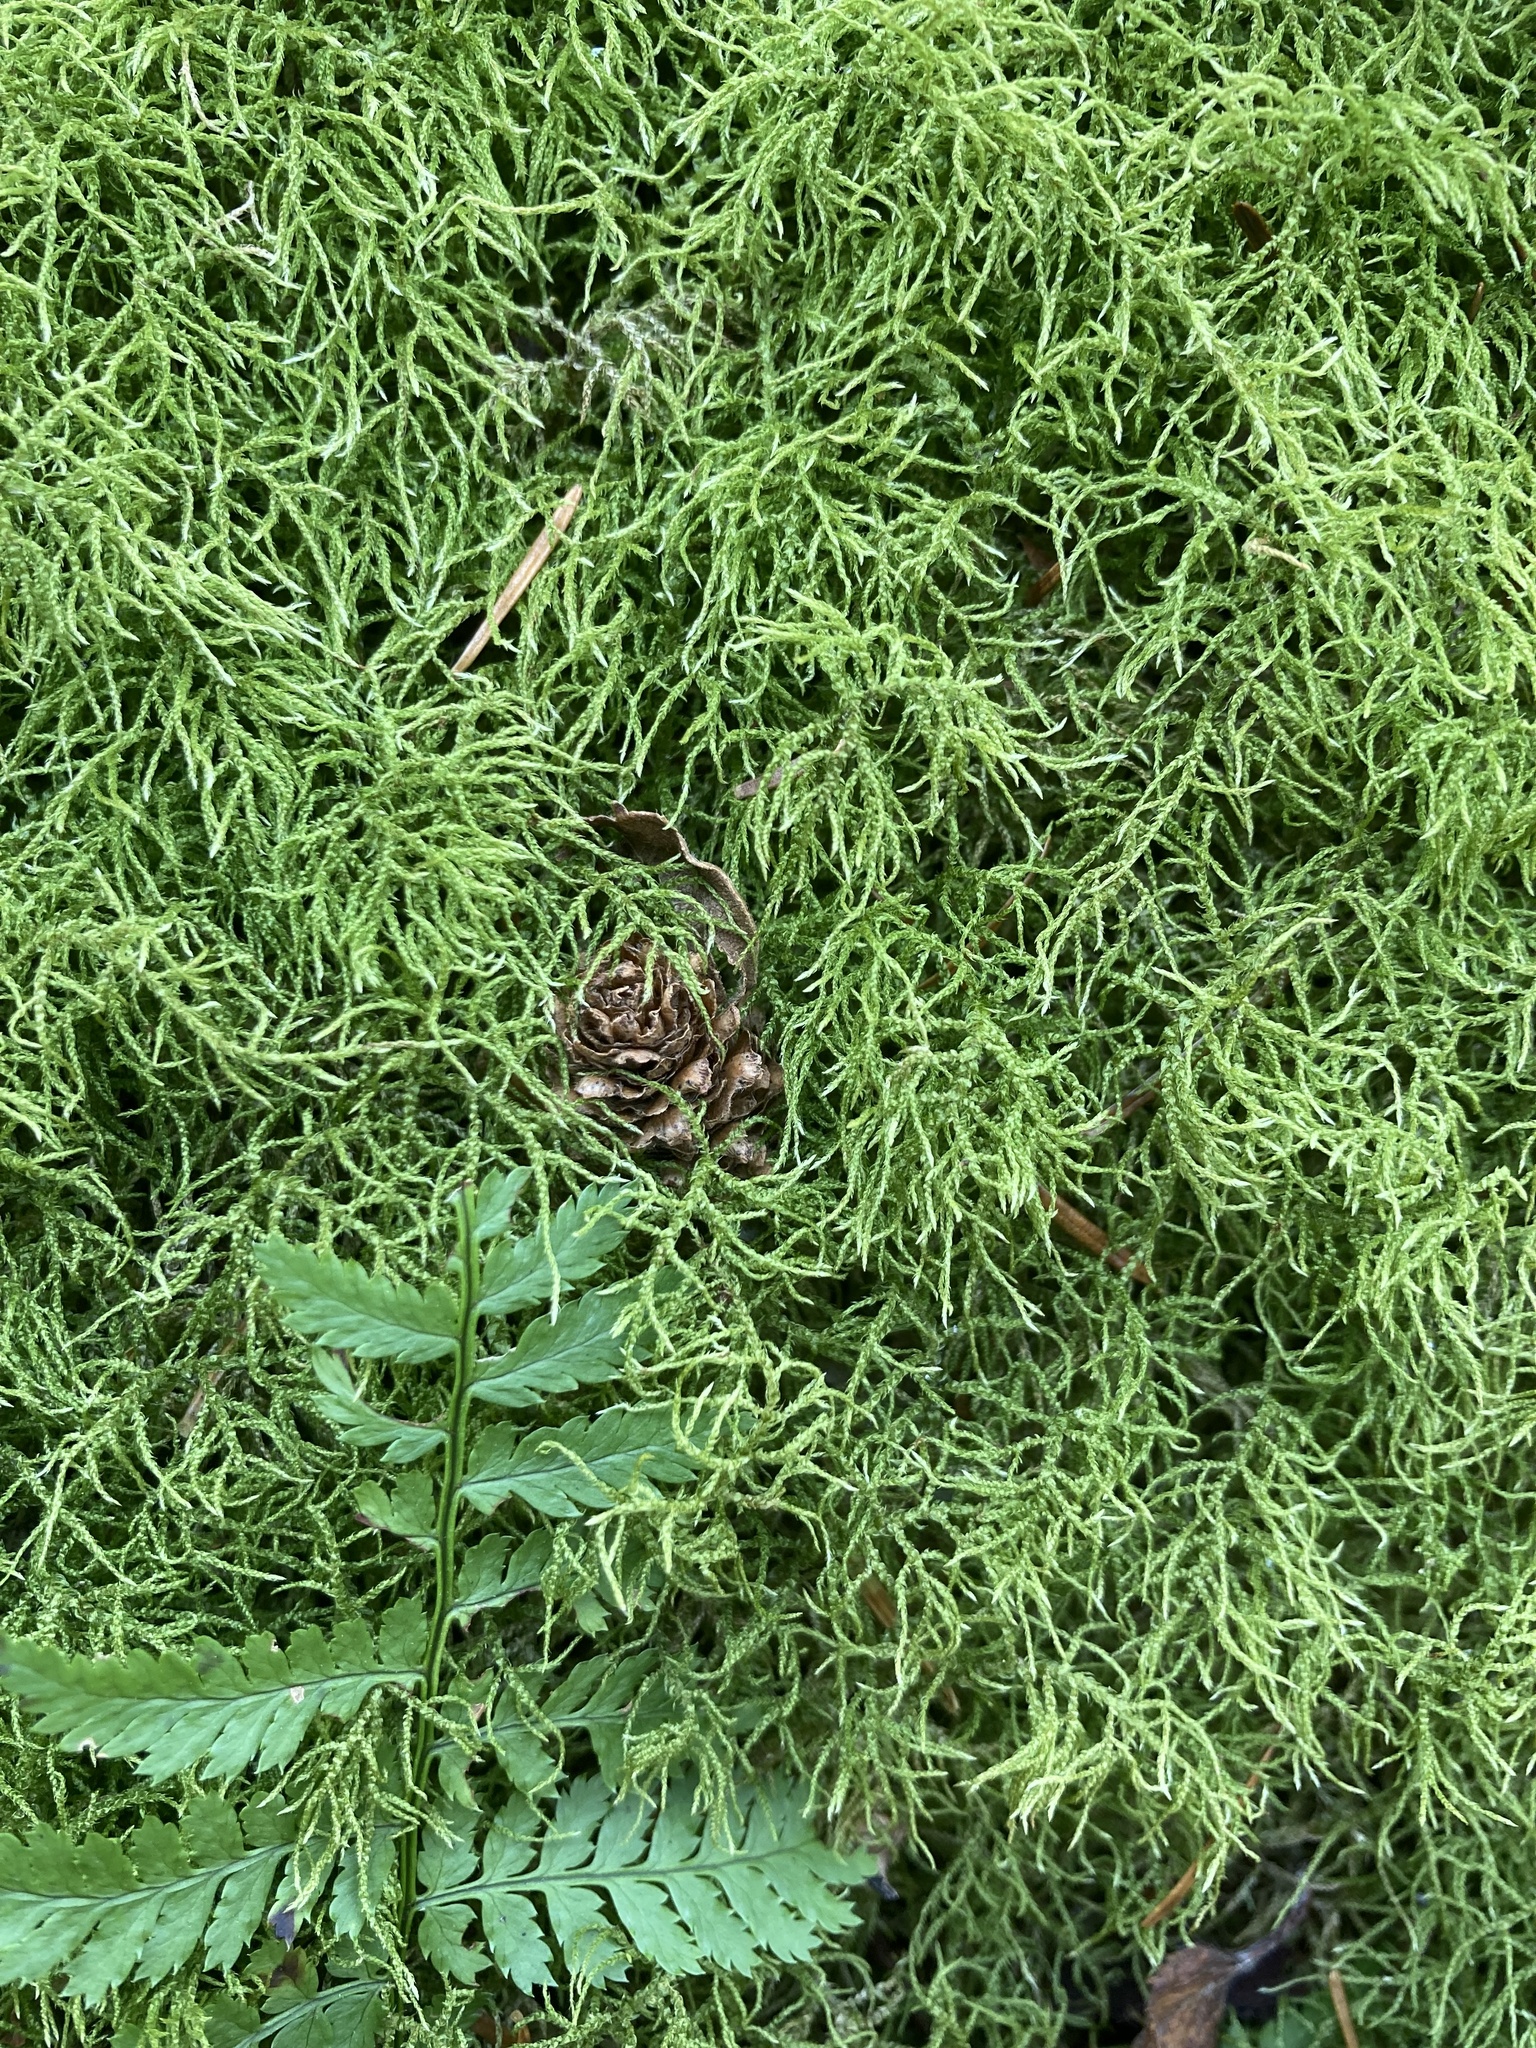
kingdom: Plantae
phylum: Bryophyta
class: Bryopsida
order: Hypnales
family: Hylocomiaceae
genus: Hylocomiastrum
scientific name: Hylocomiastrum umbratum
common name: Shaded woods moss
